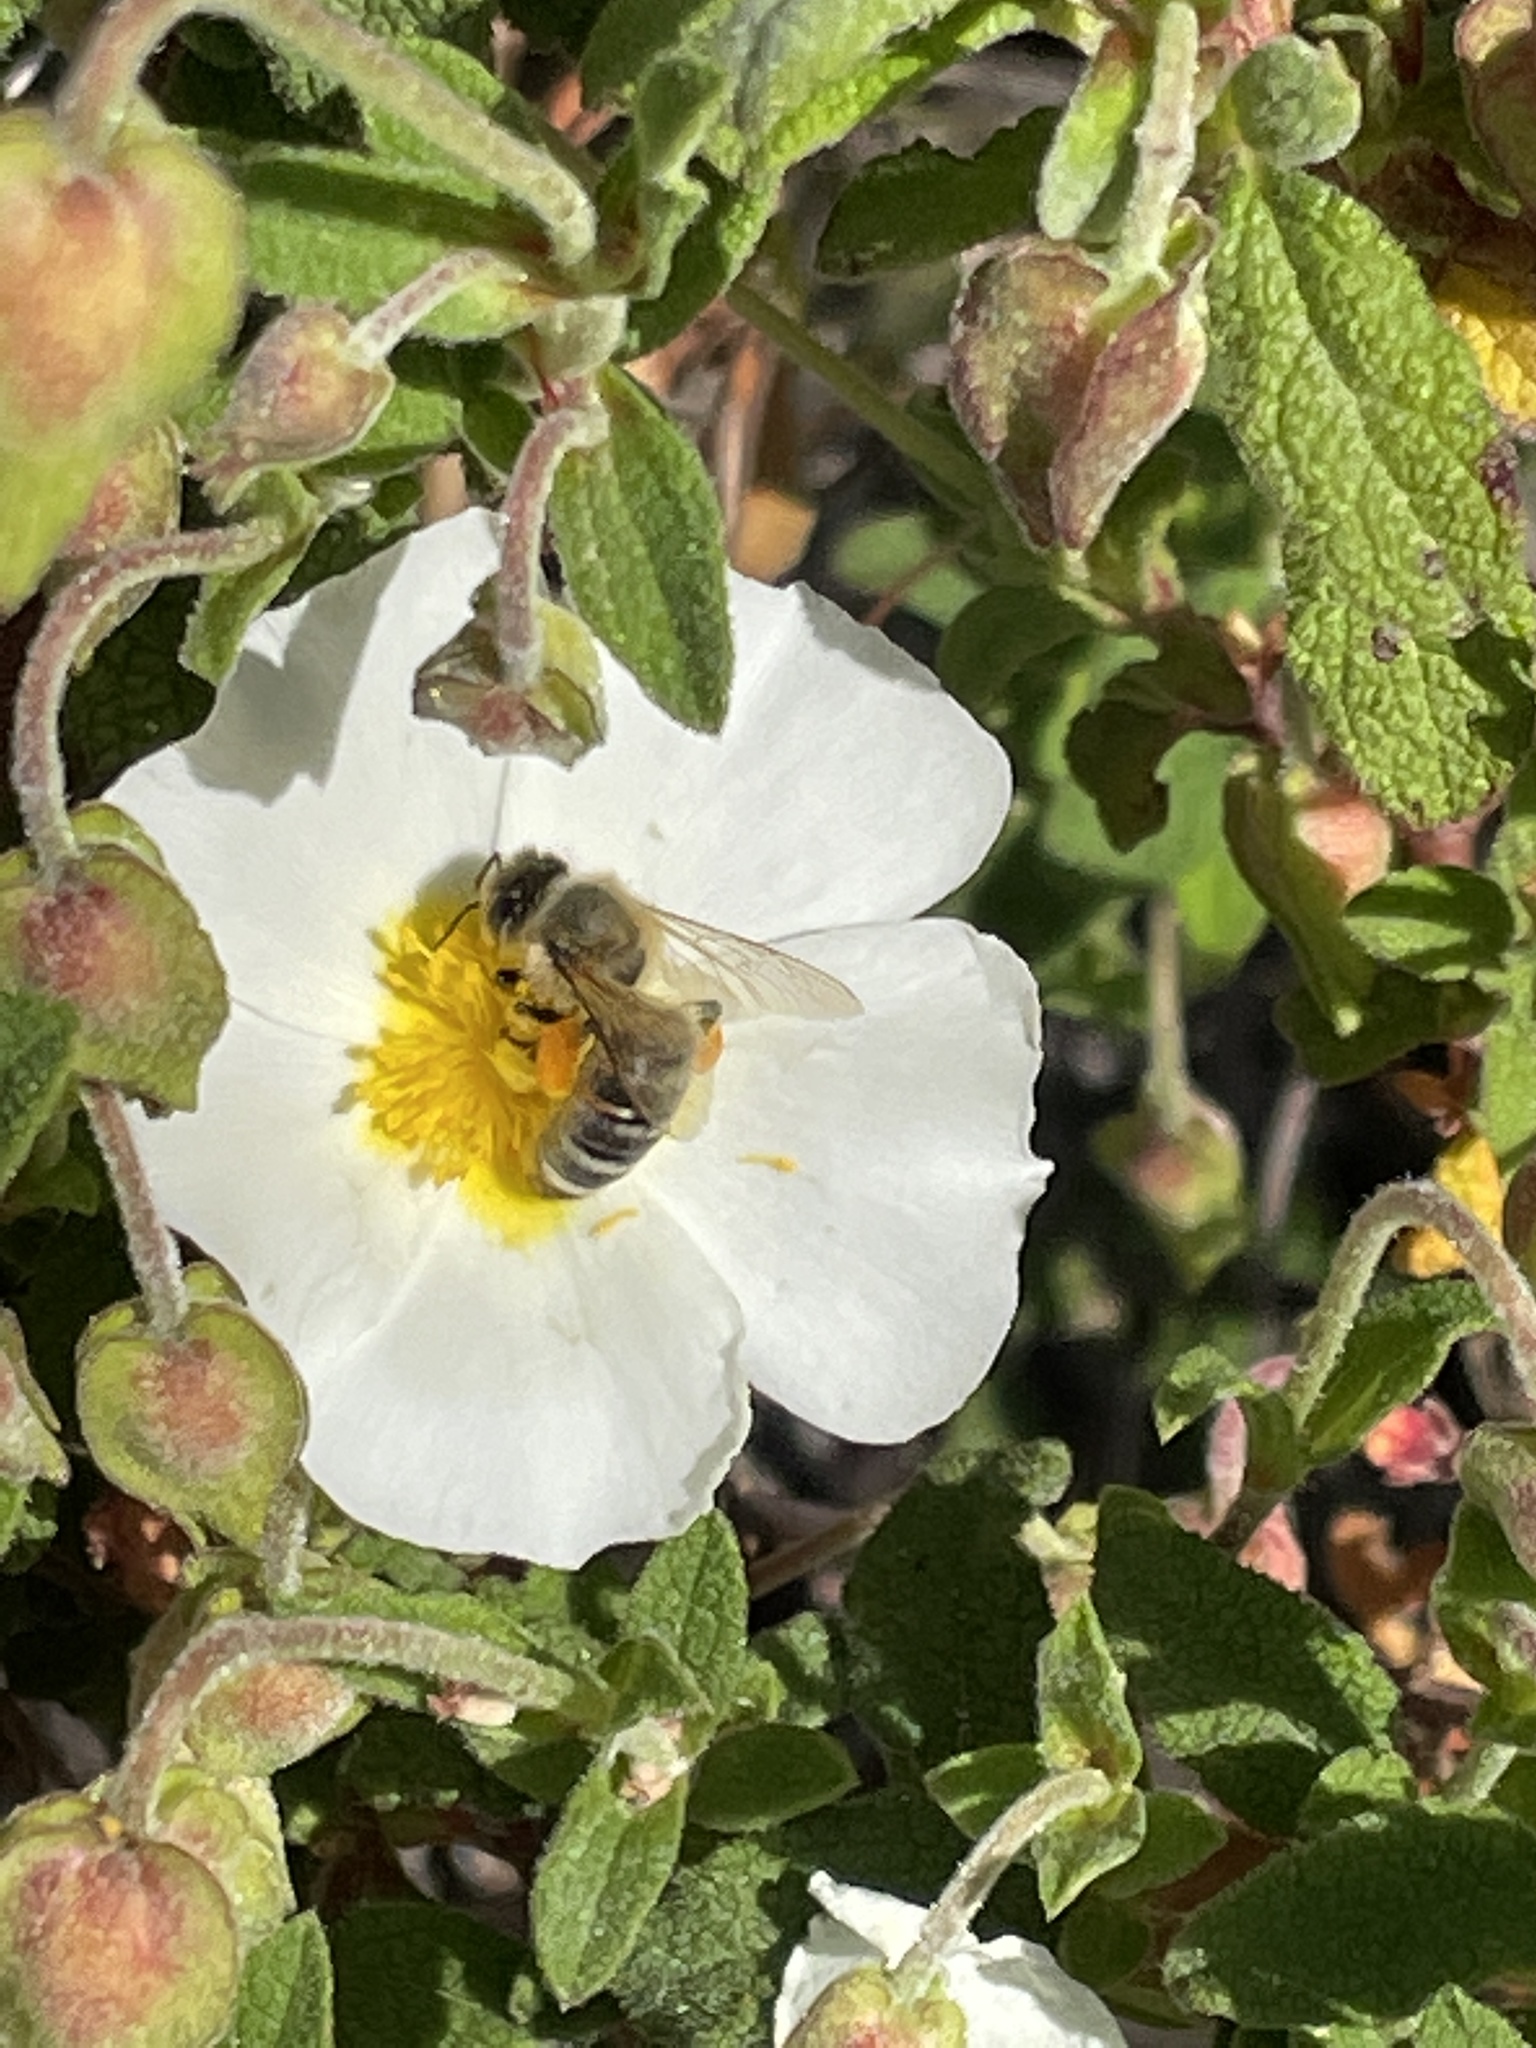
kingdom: Animalia
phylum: Arthropoda
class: Insecta
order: Hymenoptera
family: Apidae
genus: Apis
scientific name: Apis mellifera
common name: Honey bee
